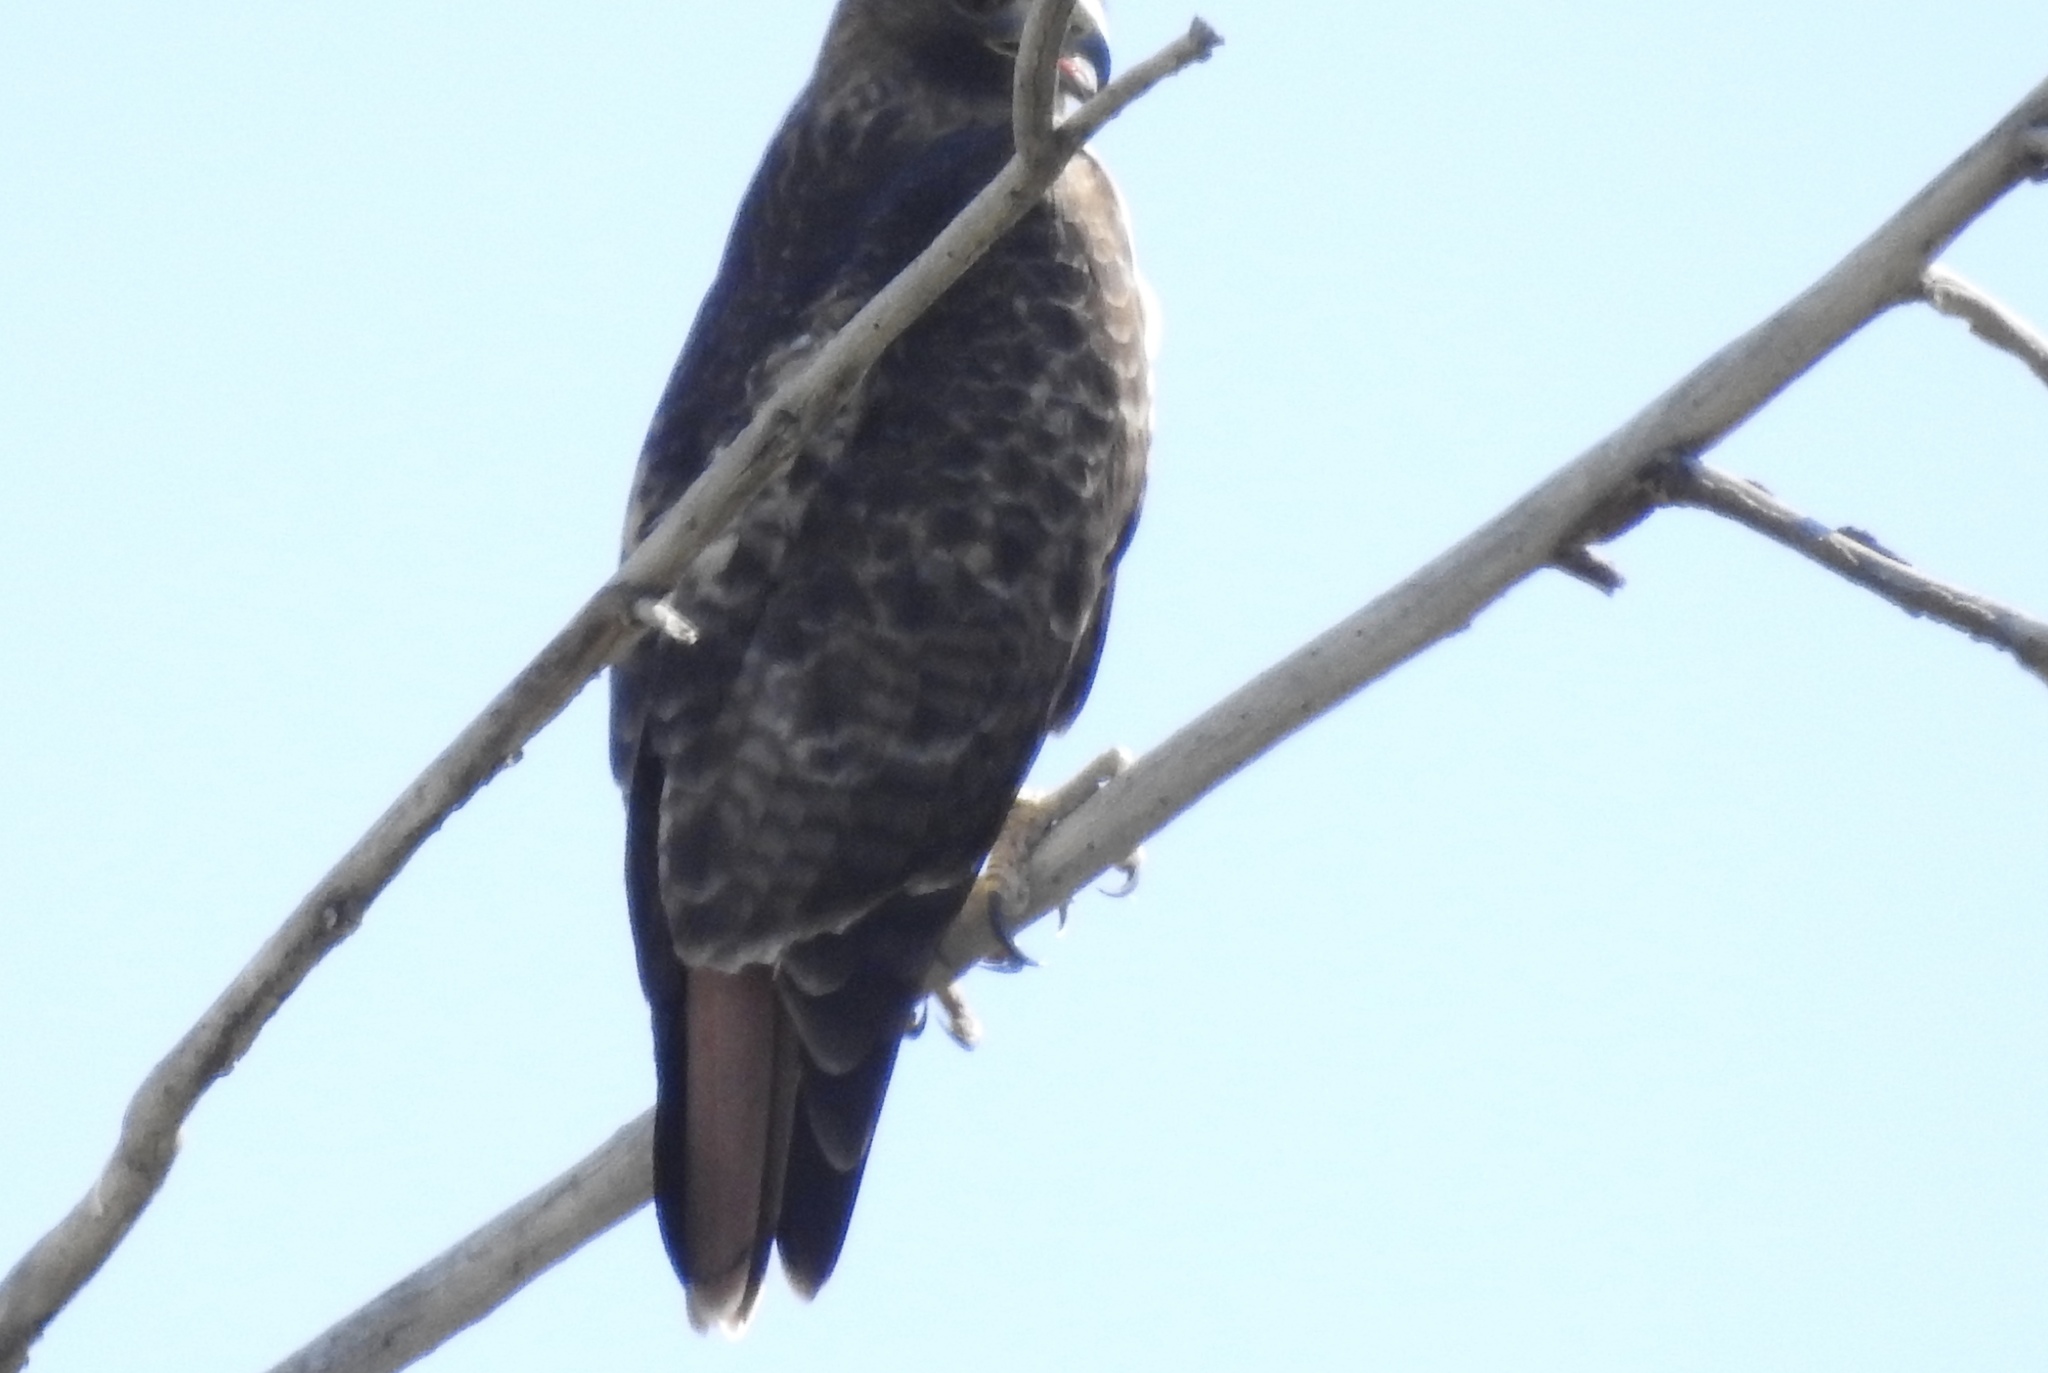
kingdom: Animalia
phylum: Chordata
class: Aves
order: Accipitriformes
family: Accipitridae
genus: Buteo
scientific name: Buteo jamaicensis
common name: Red-tailed hawk
